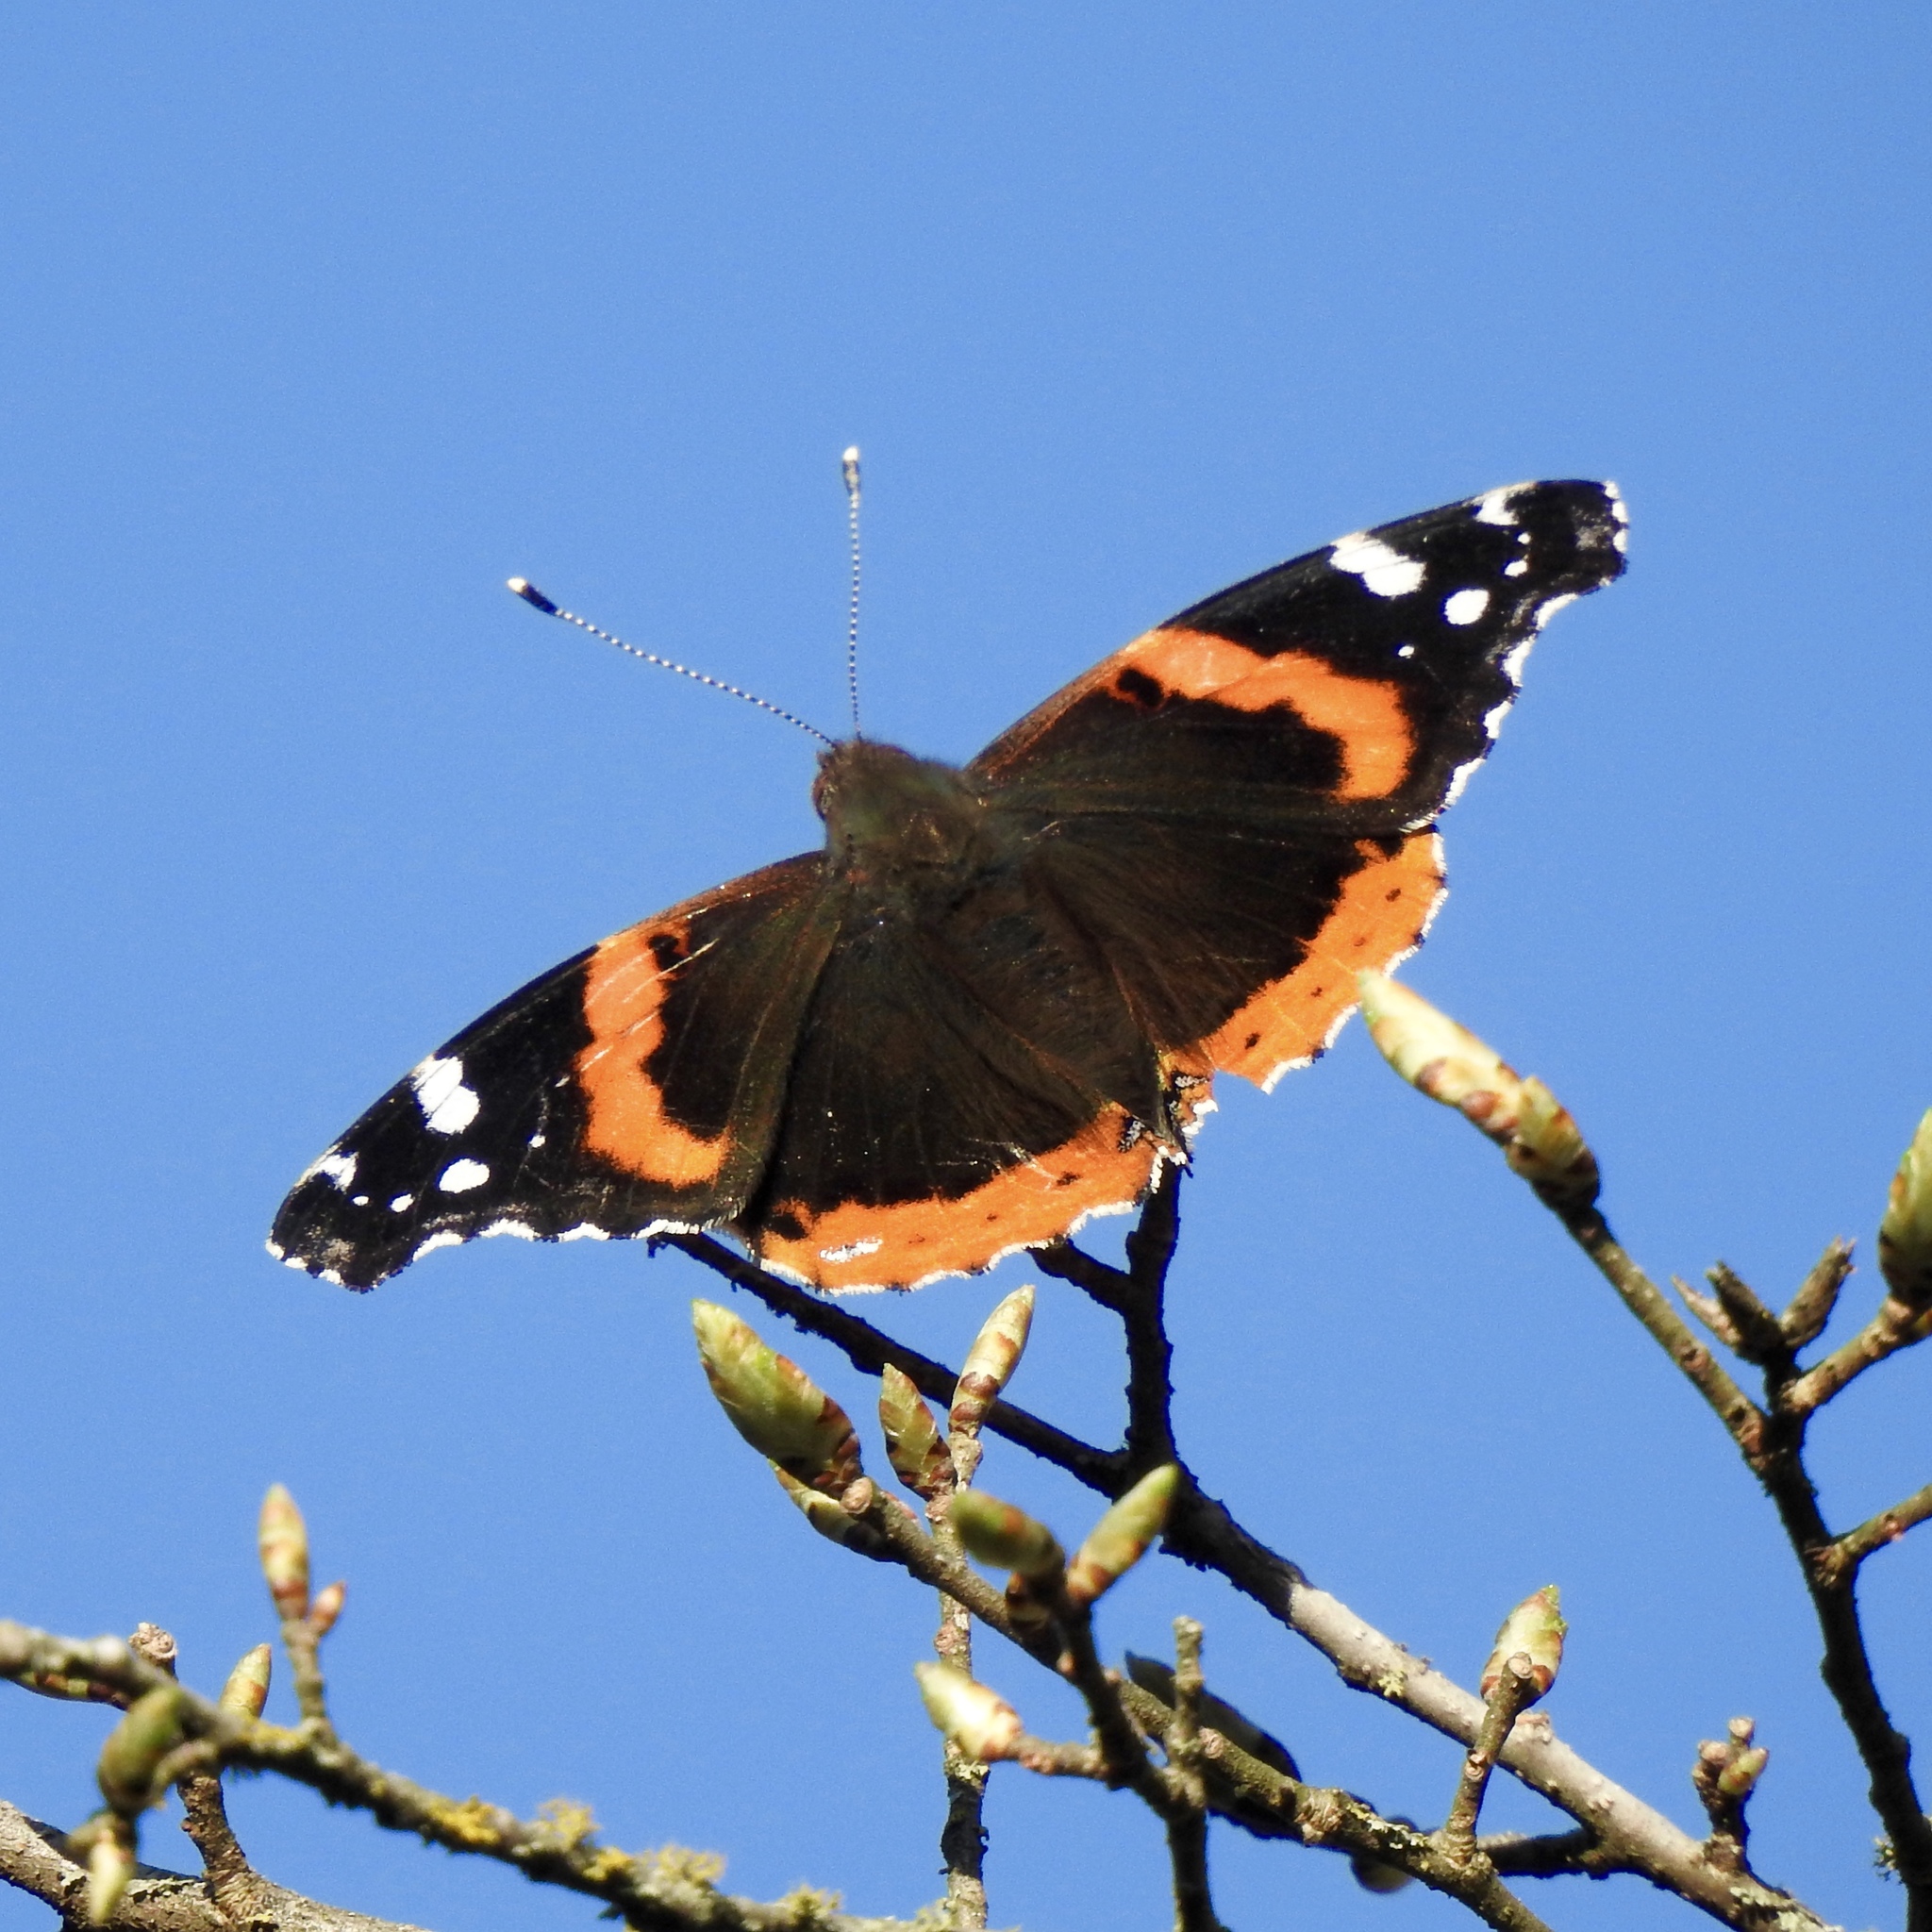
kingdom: Animalia
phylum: Arthropoda
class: Insecta
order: Lepidoptera
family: Nymphalidae
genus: Vanessa
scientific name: Vanessa atalanta
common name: Red admiral
